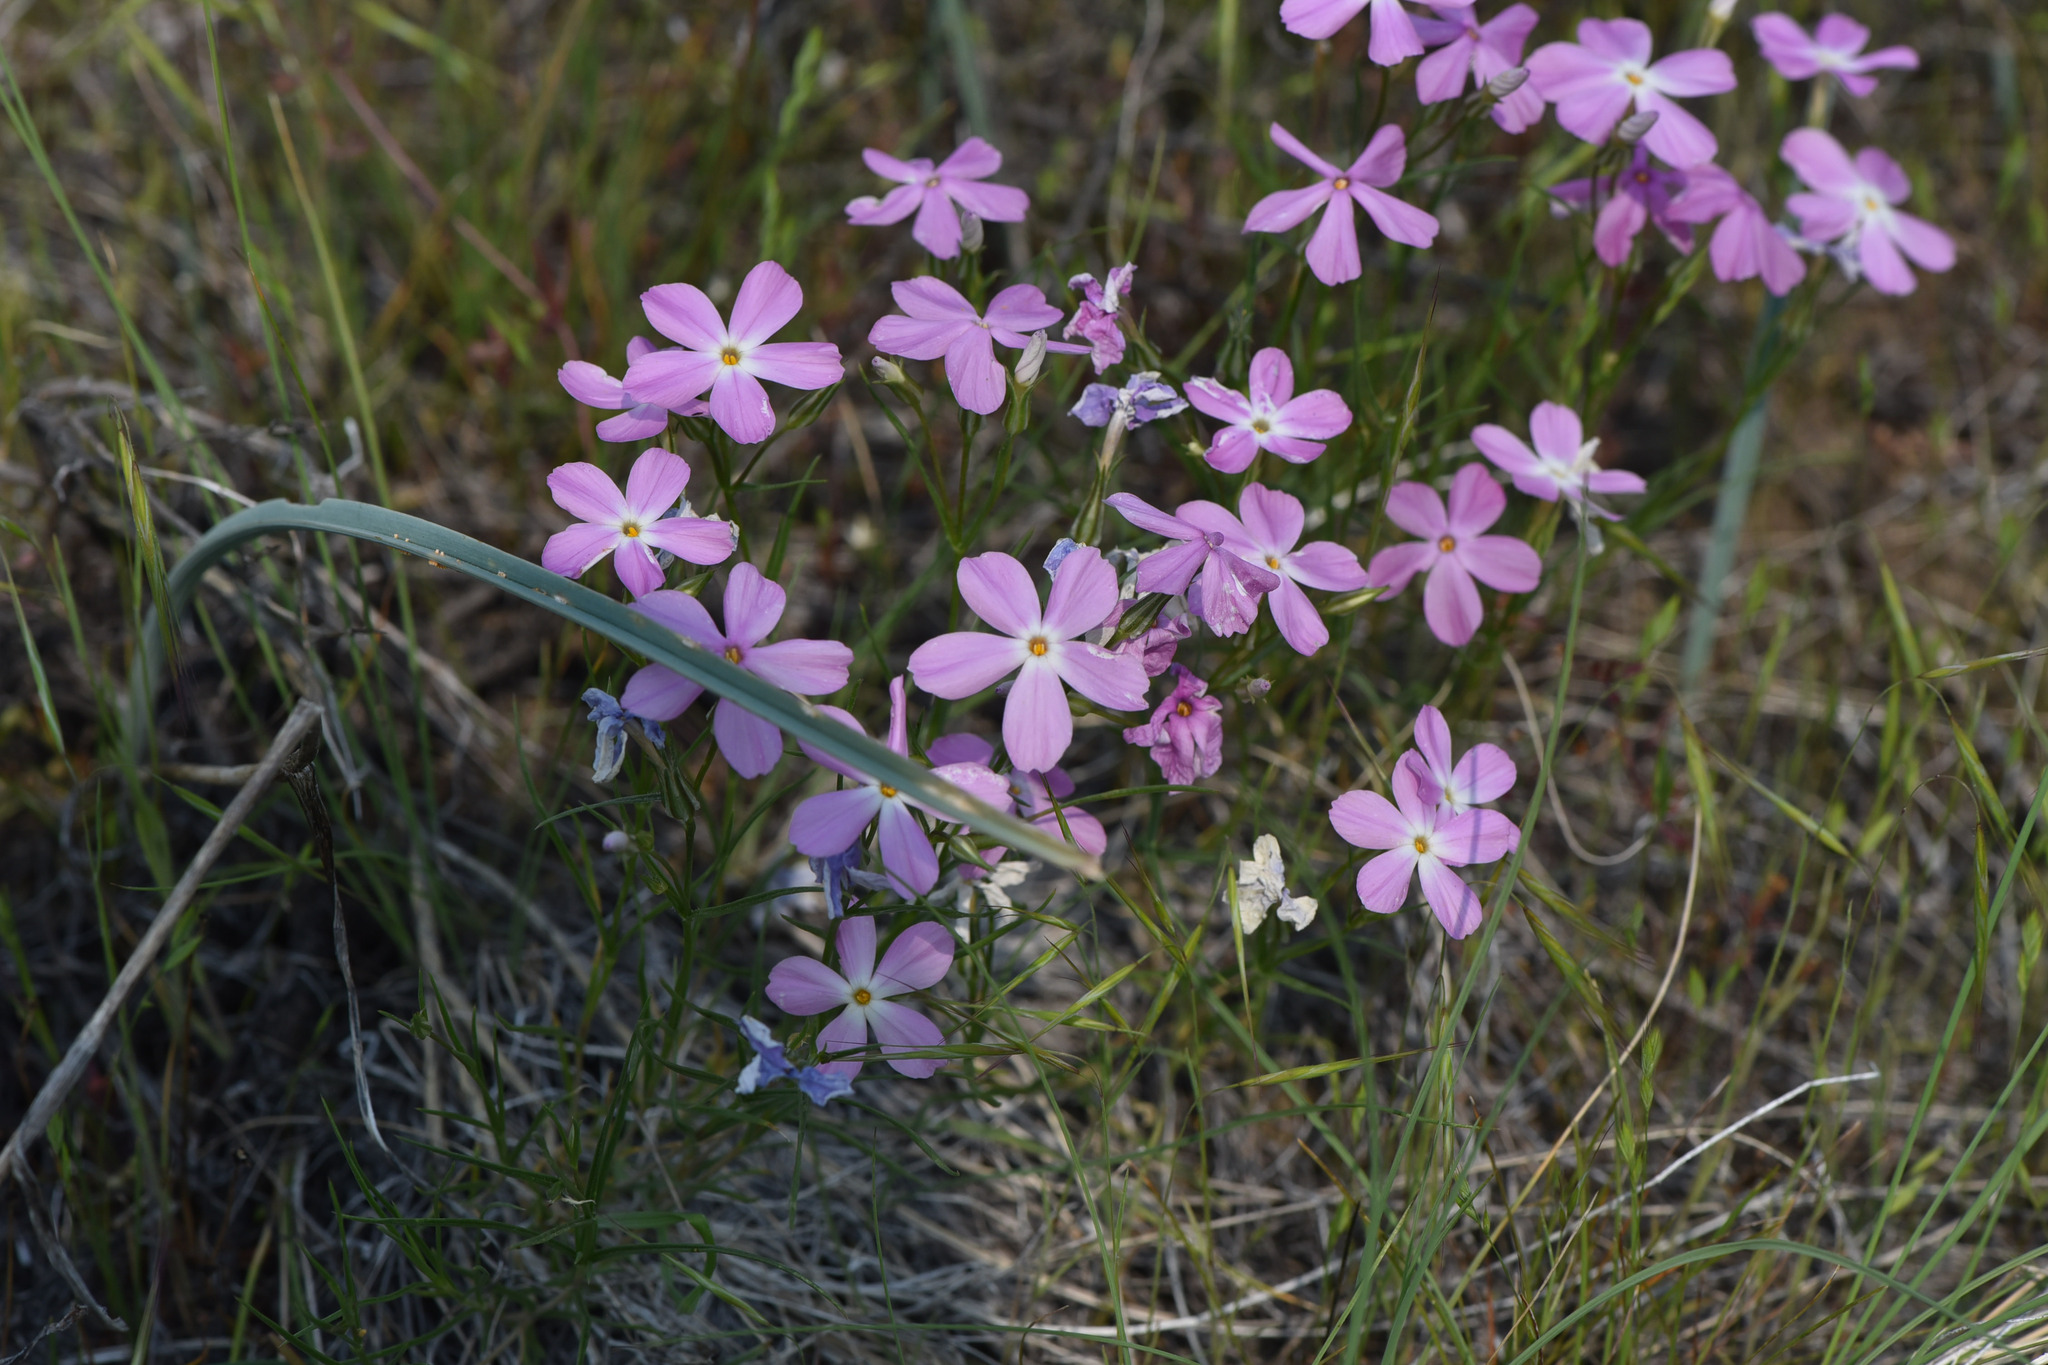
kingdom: Plantae
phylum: Tracheophyta
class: Magnoliopsida
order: Ericales
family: Polemoniaceae
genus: Phlox
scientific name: Phlox longifolia
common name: Longleaf phlox
